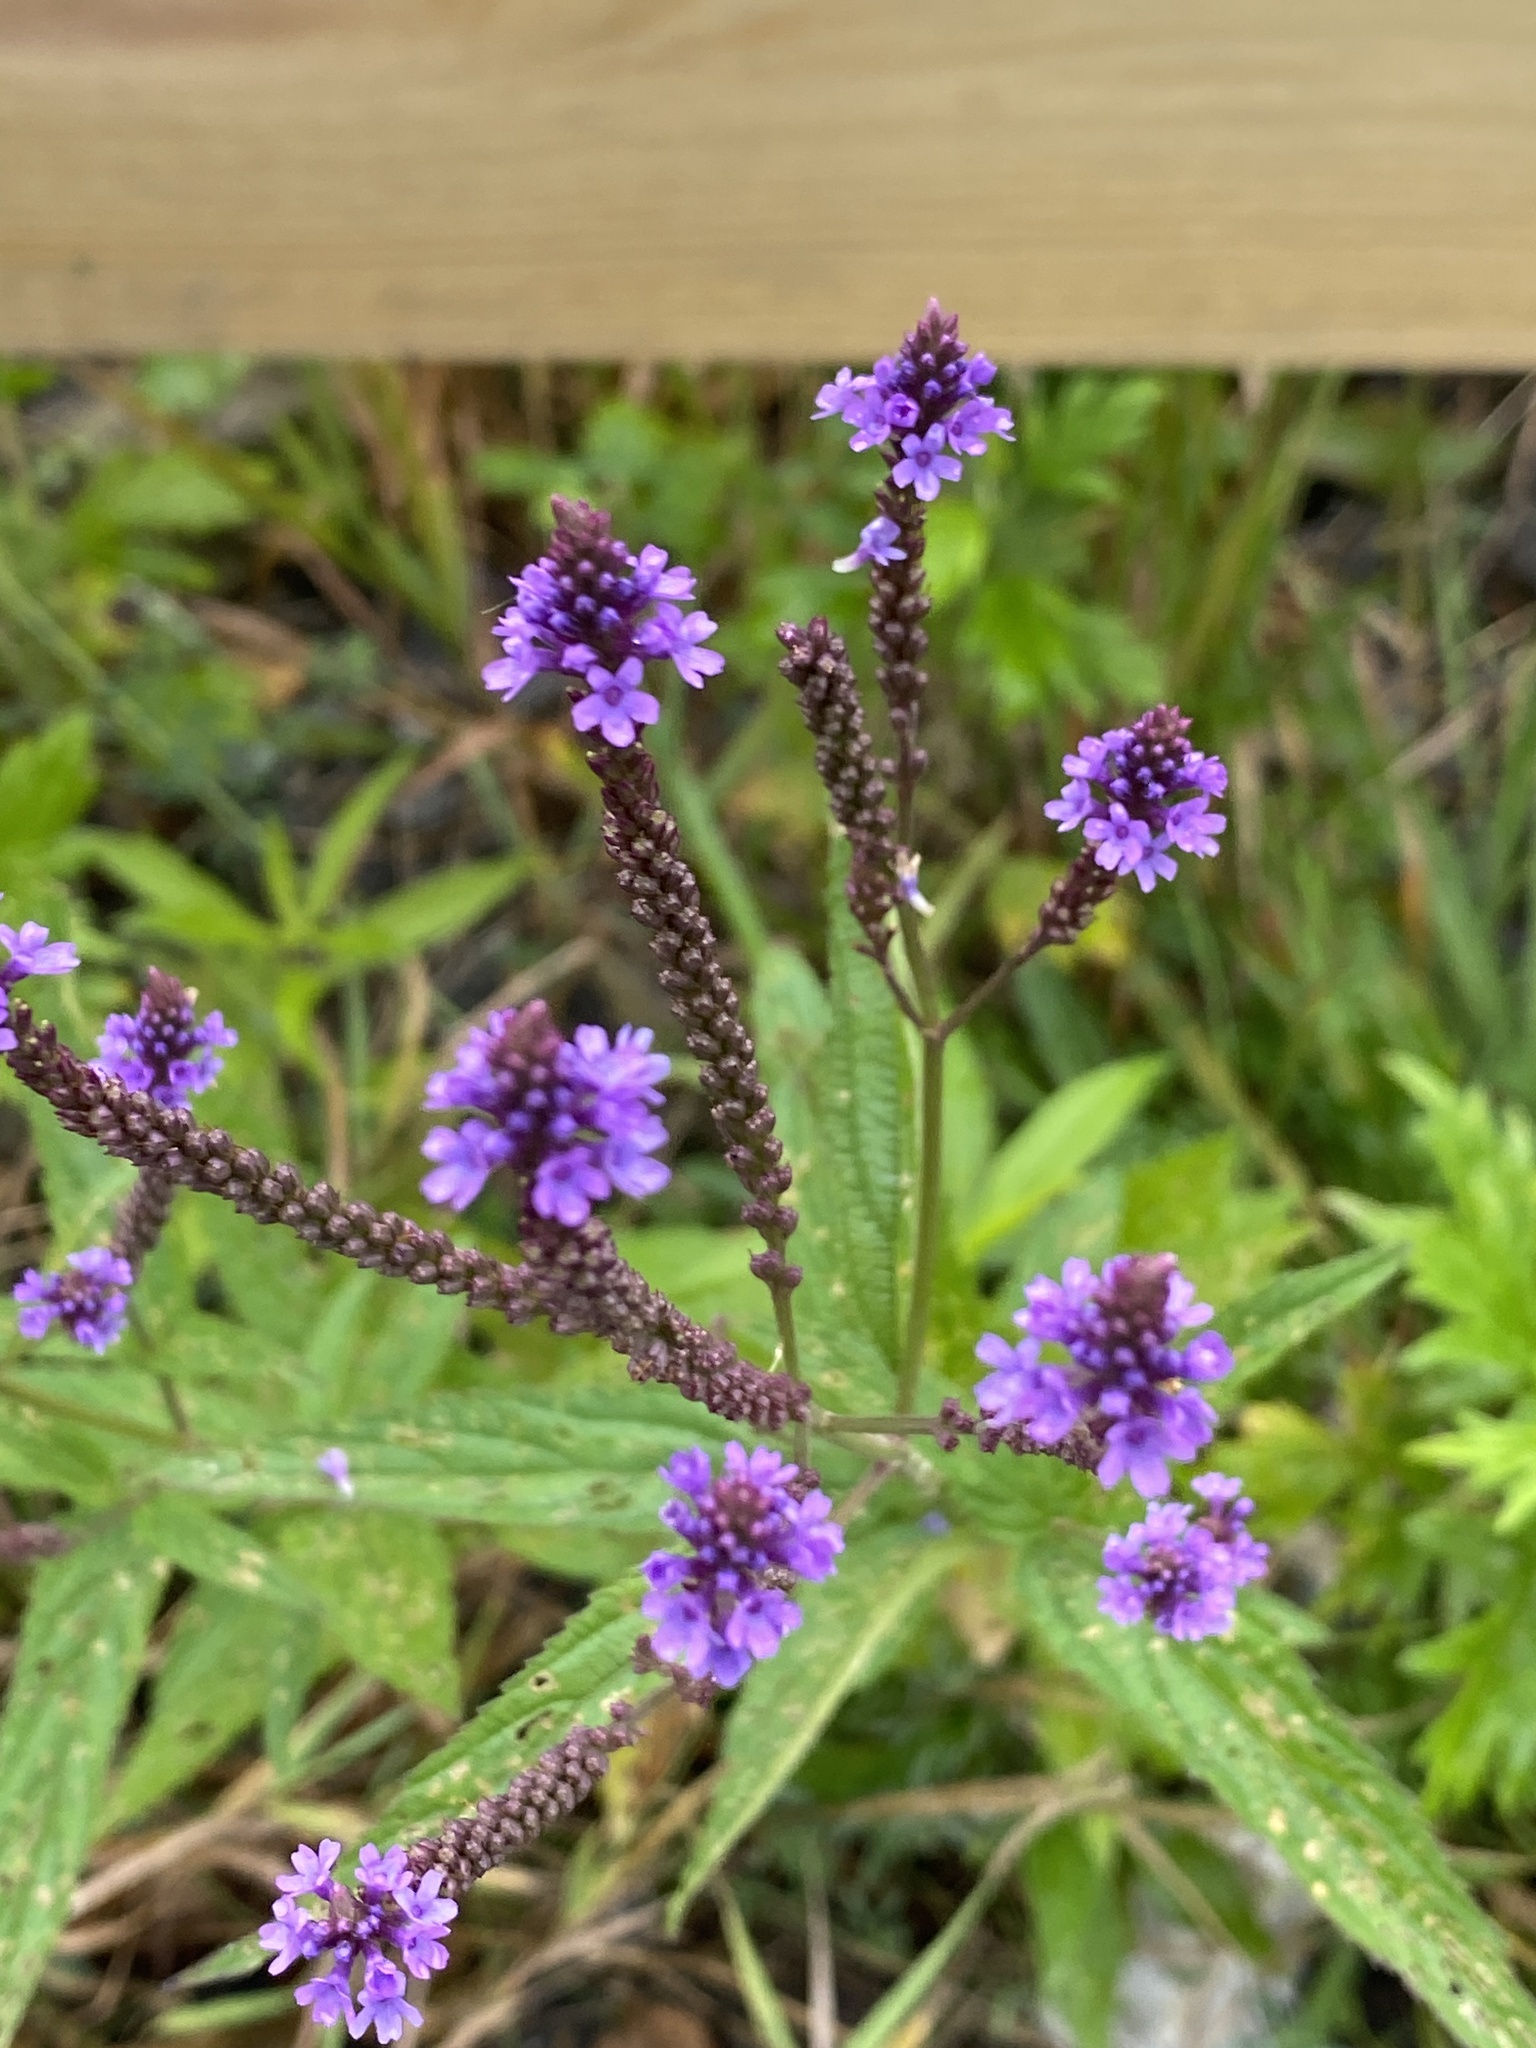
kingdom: Plantae
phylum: Tracheophyta
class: Magnoliopsida
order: Lamiales
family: Verbenaceae
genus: Verbena
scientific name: Verbena hastata
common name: American blue vervain
